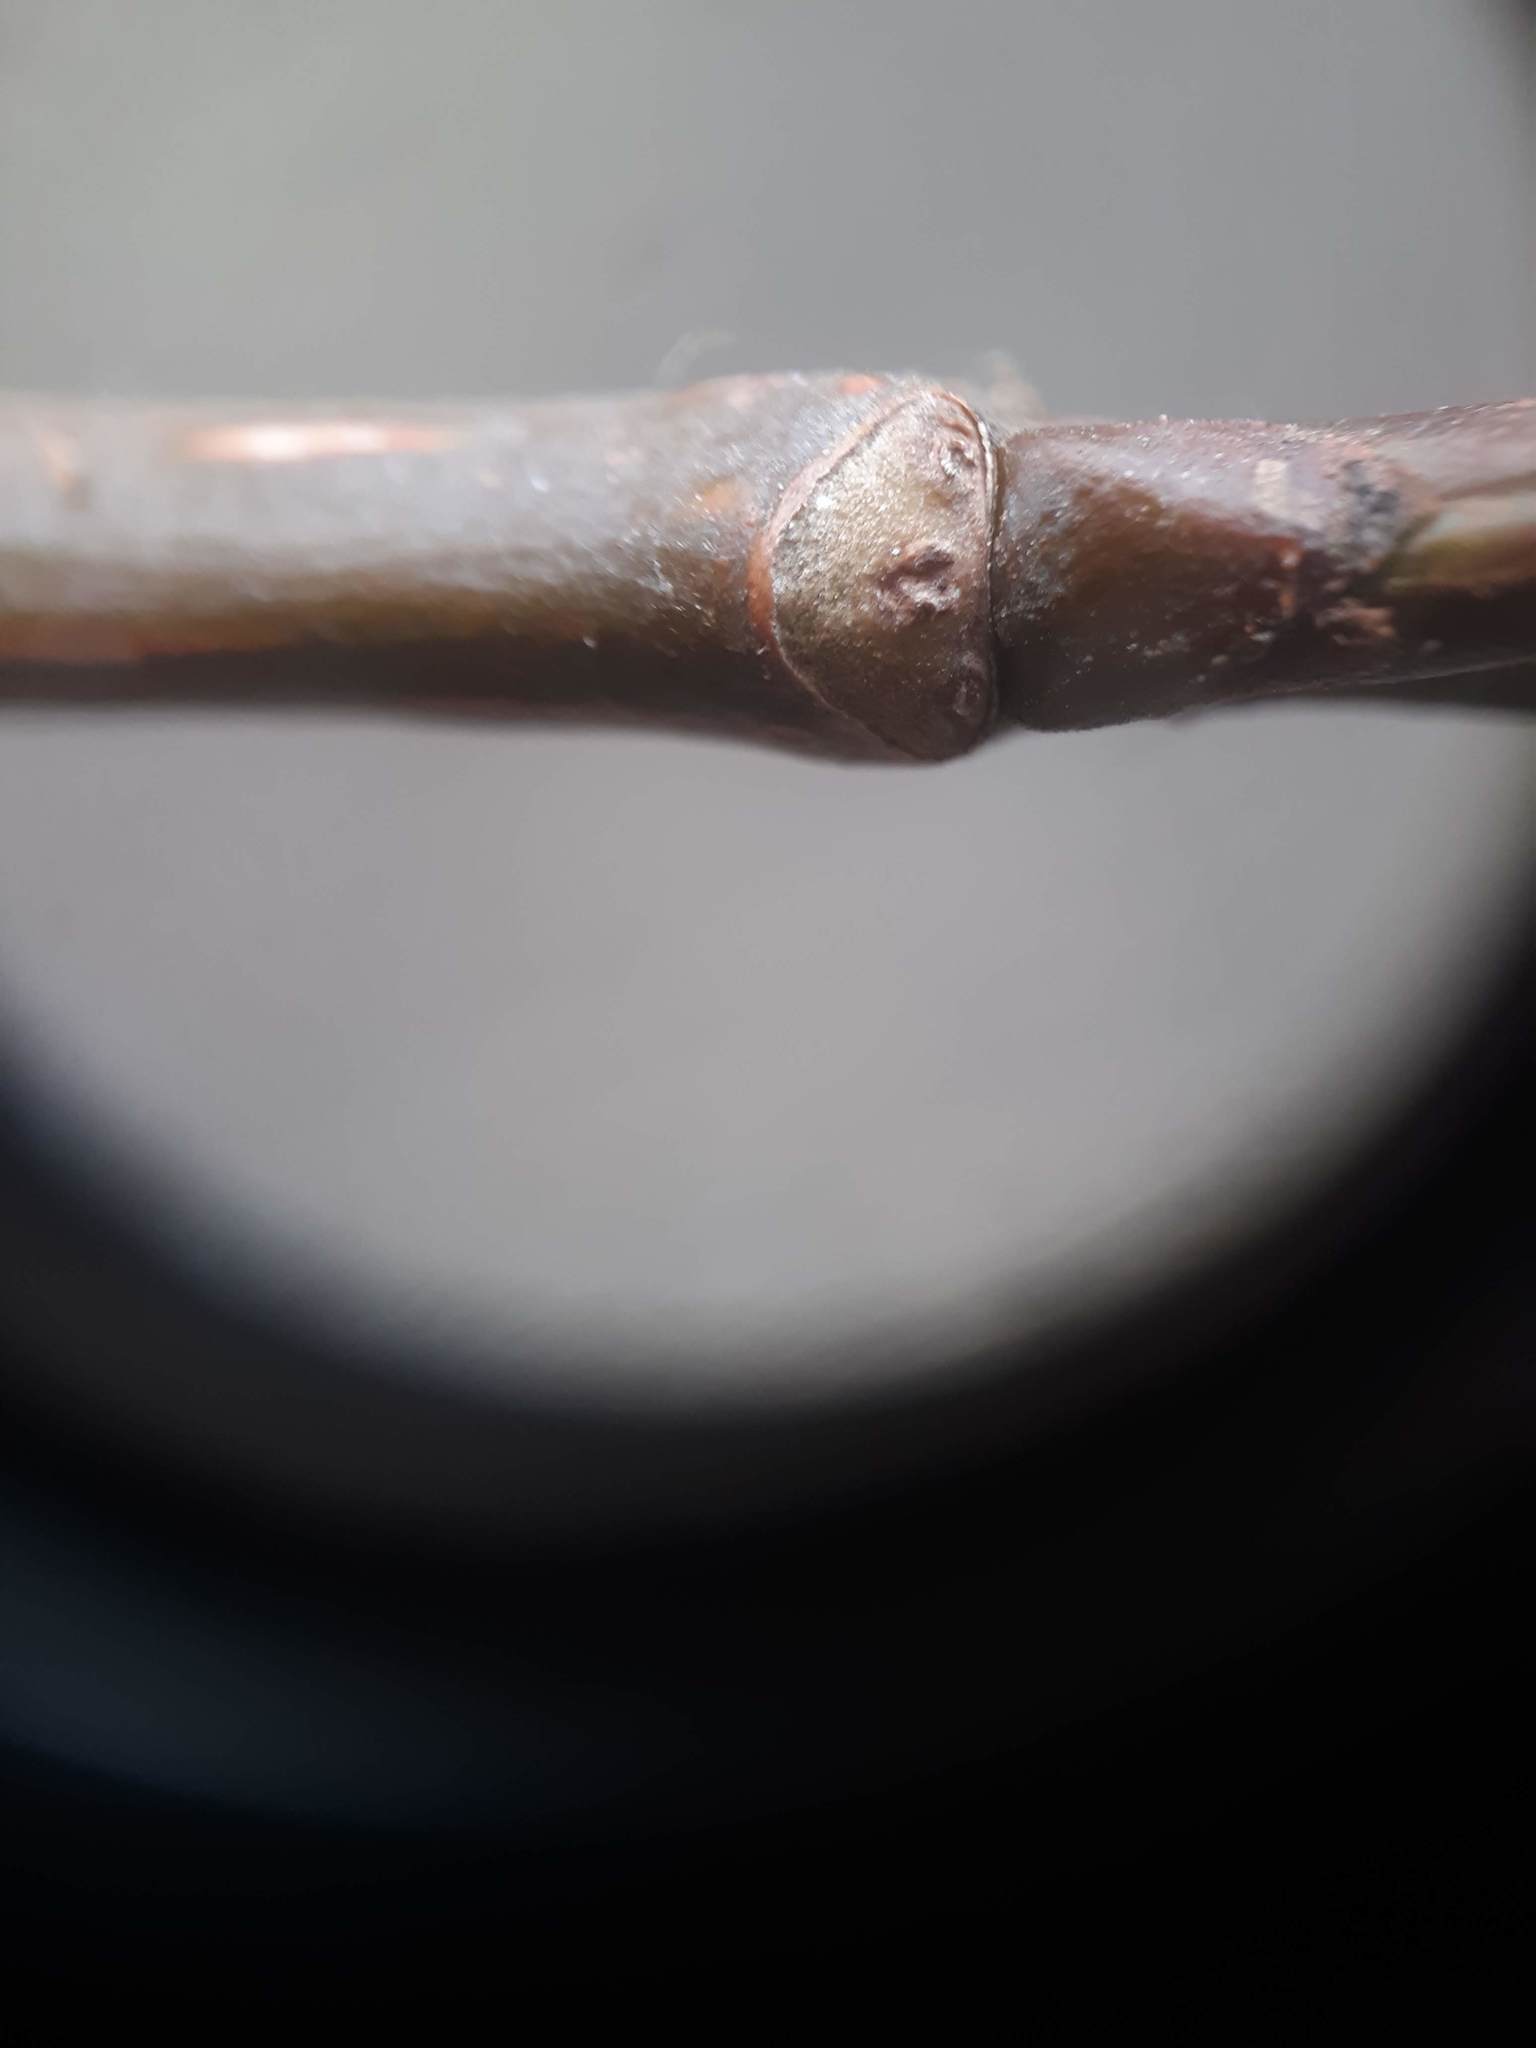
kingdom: Plantae
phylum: Tracheophyta
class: Magnoliopsida
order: Malpighiales
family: Salicaceae
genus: Populus
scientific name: Populus trichocarpa
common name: Black cottonwood
